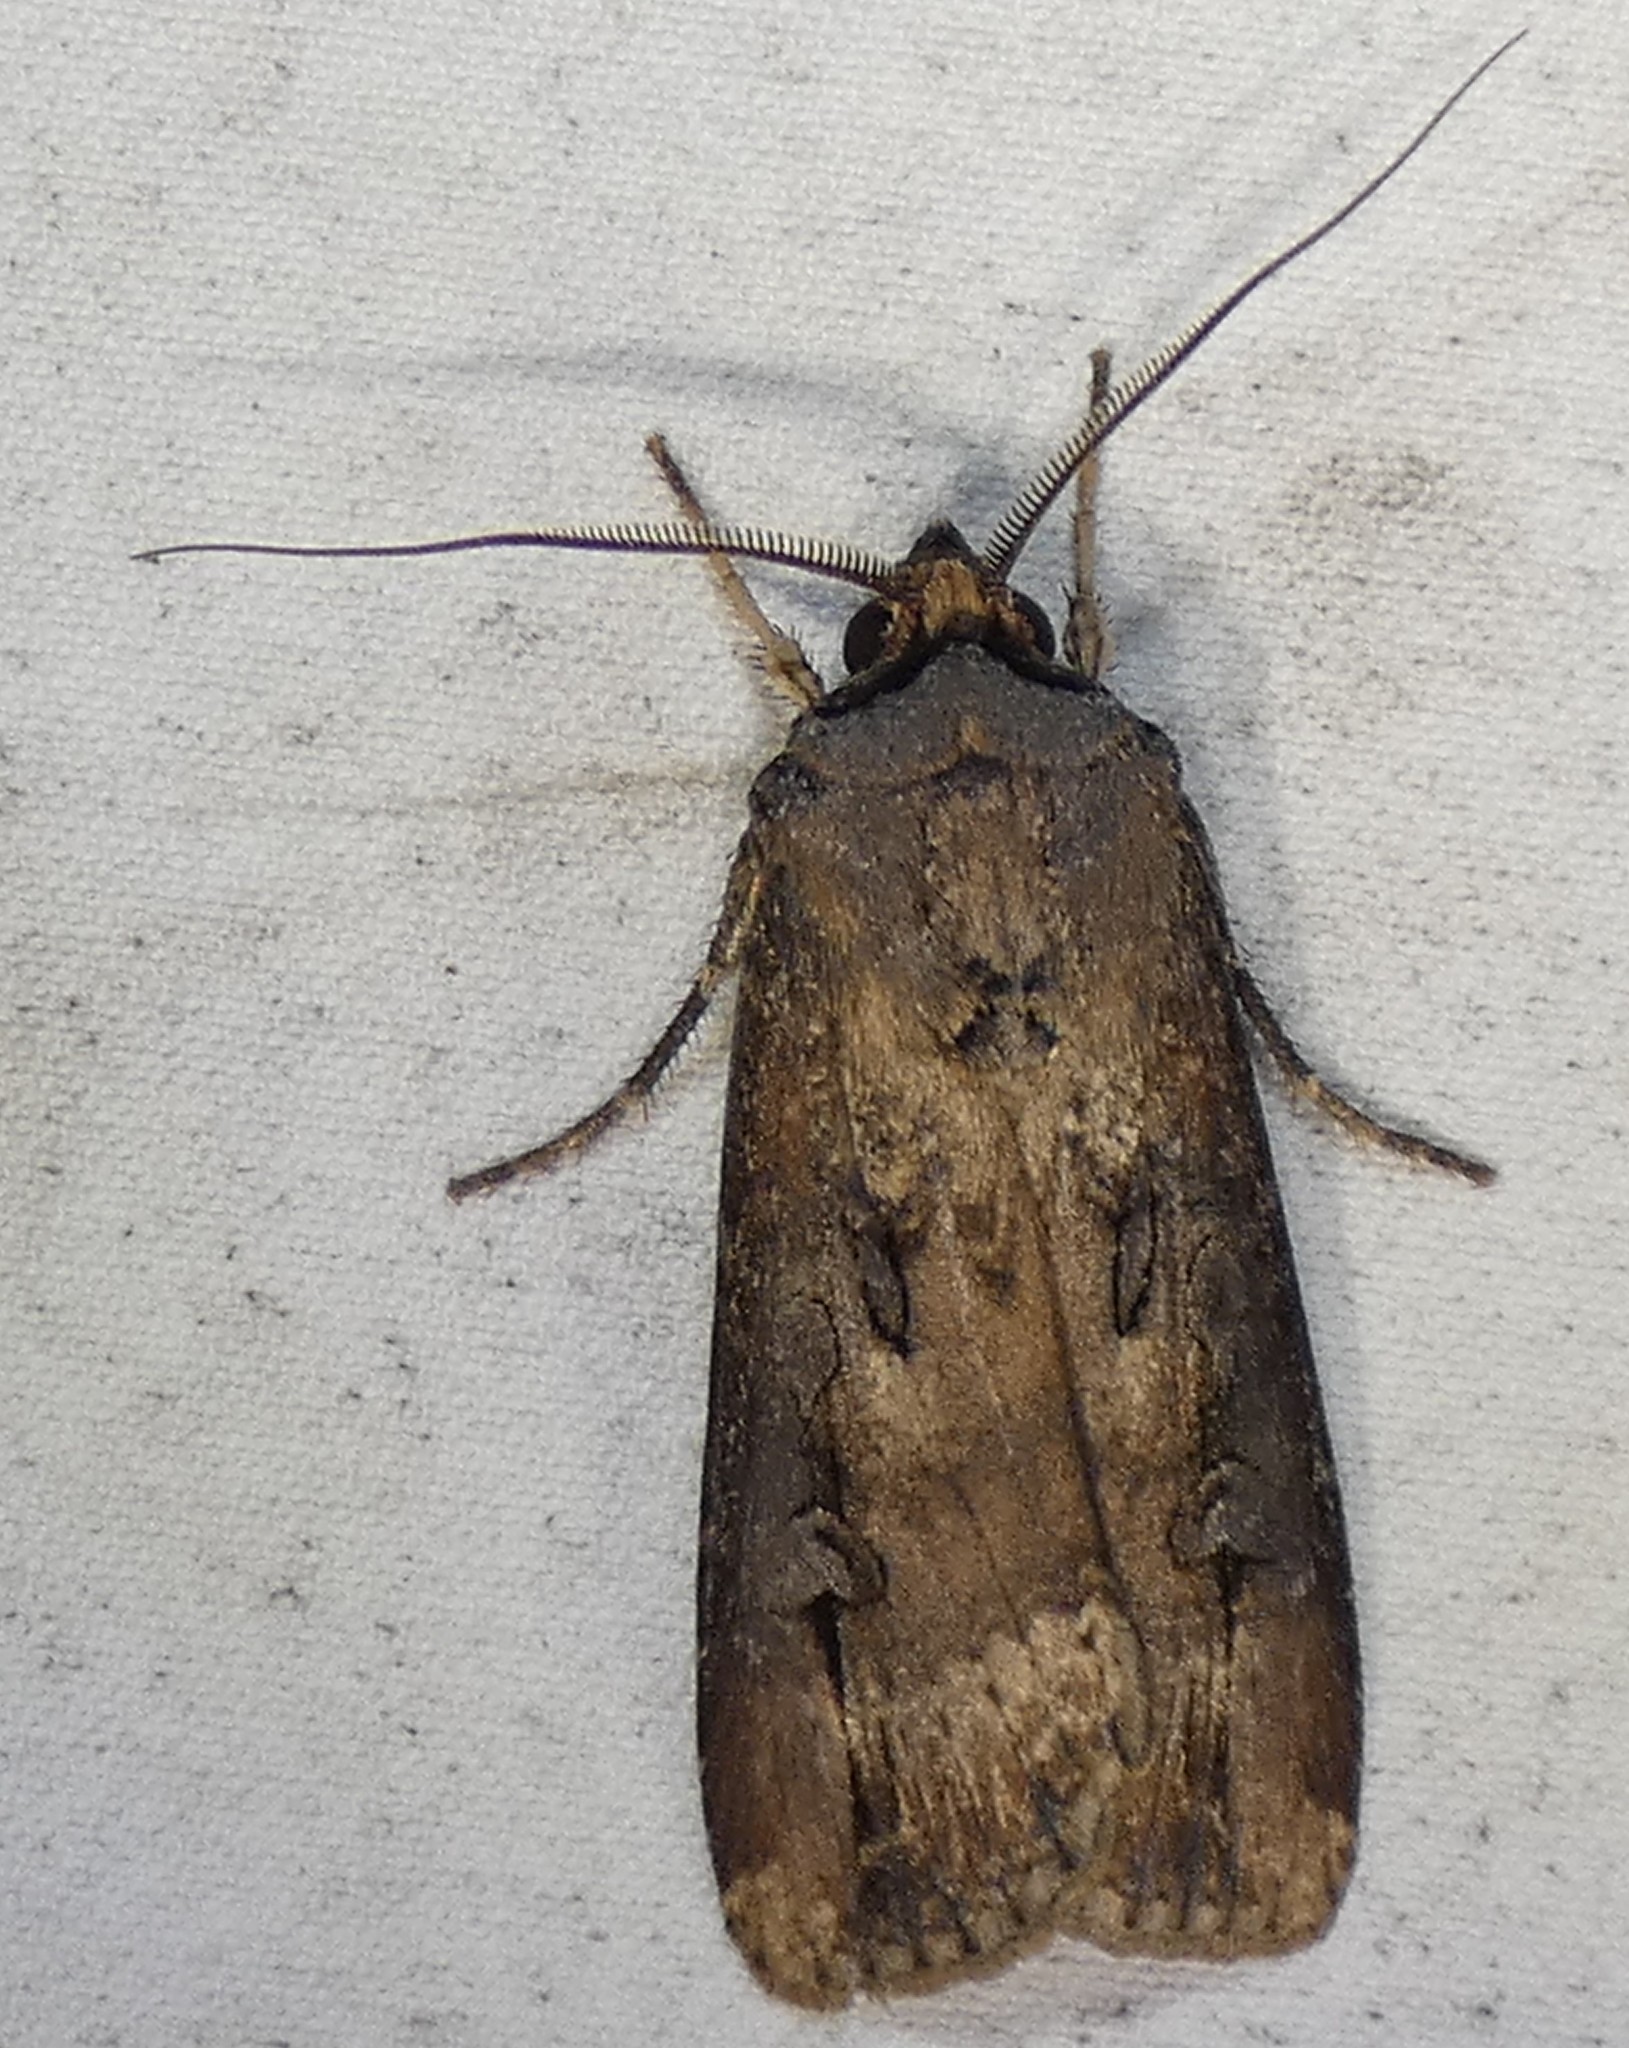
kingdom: Animalia
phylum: Arthropoda
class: Insecta
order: Lepidoptera
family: Noctuidae
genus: Agrotis
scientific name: Agrotis ipsilon
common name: Dark sword-grass
